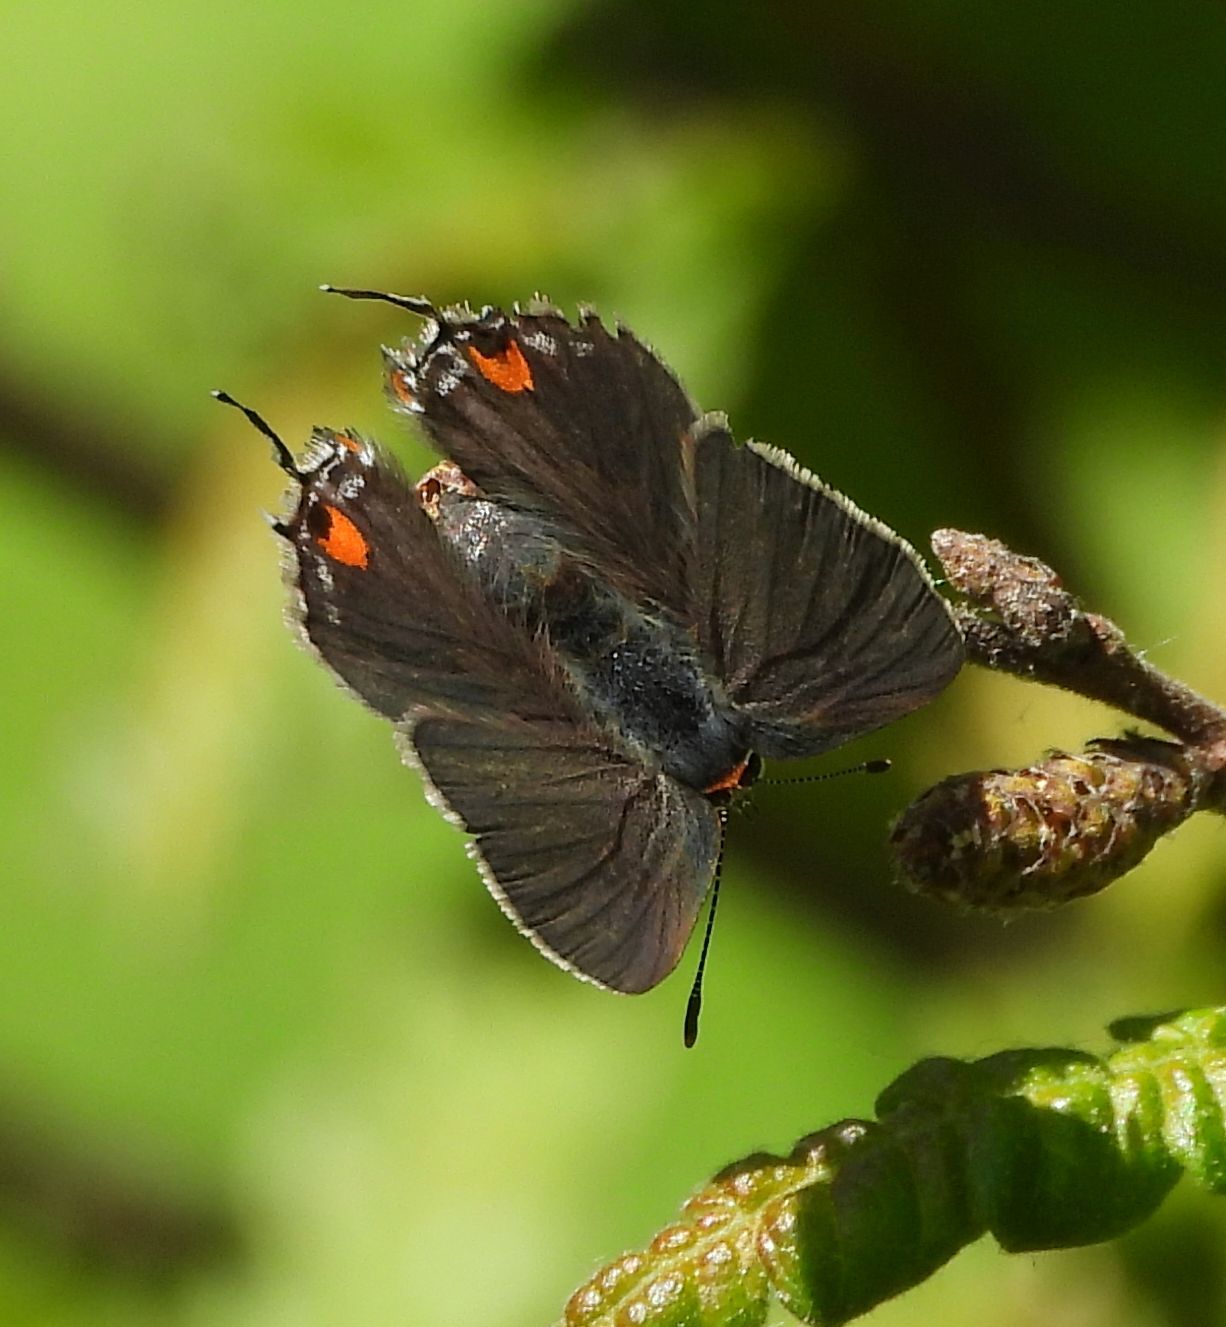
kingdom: Animalia
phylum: Arthropoda
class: Insecta
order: Lepidoptera
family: Lycaenidae
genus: Strymon
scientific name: Strymon melinus
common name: Gray hairstreak
